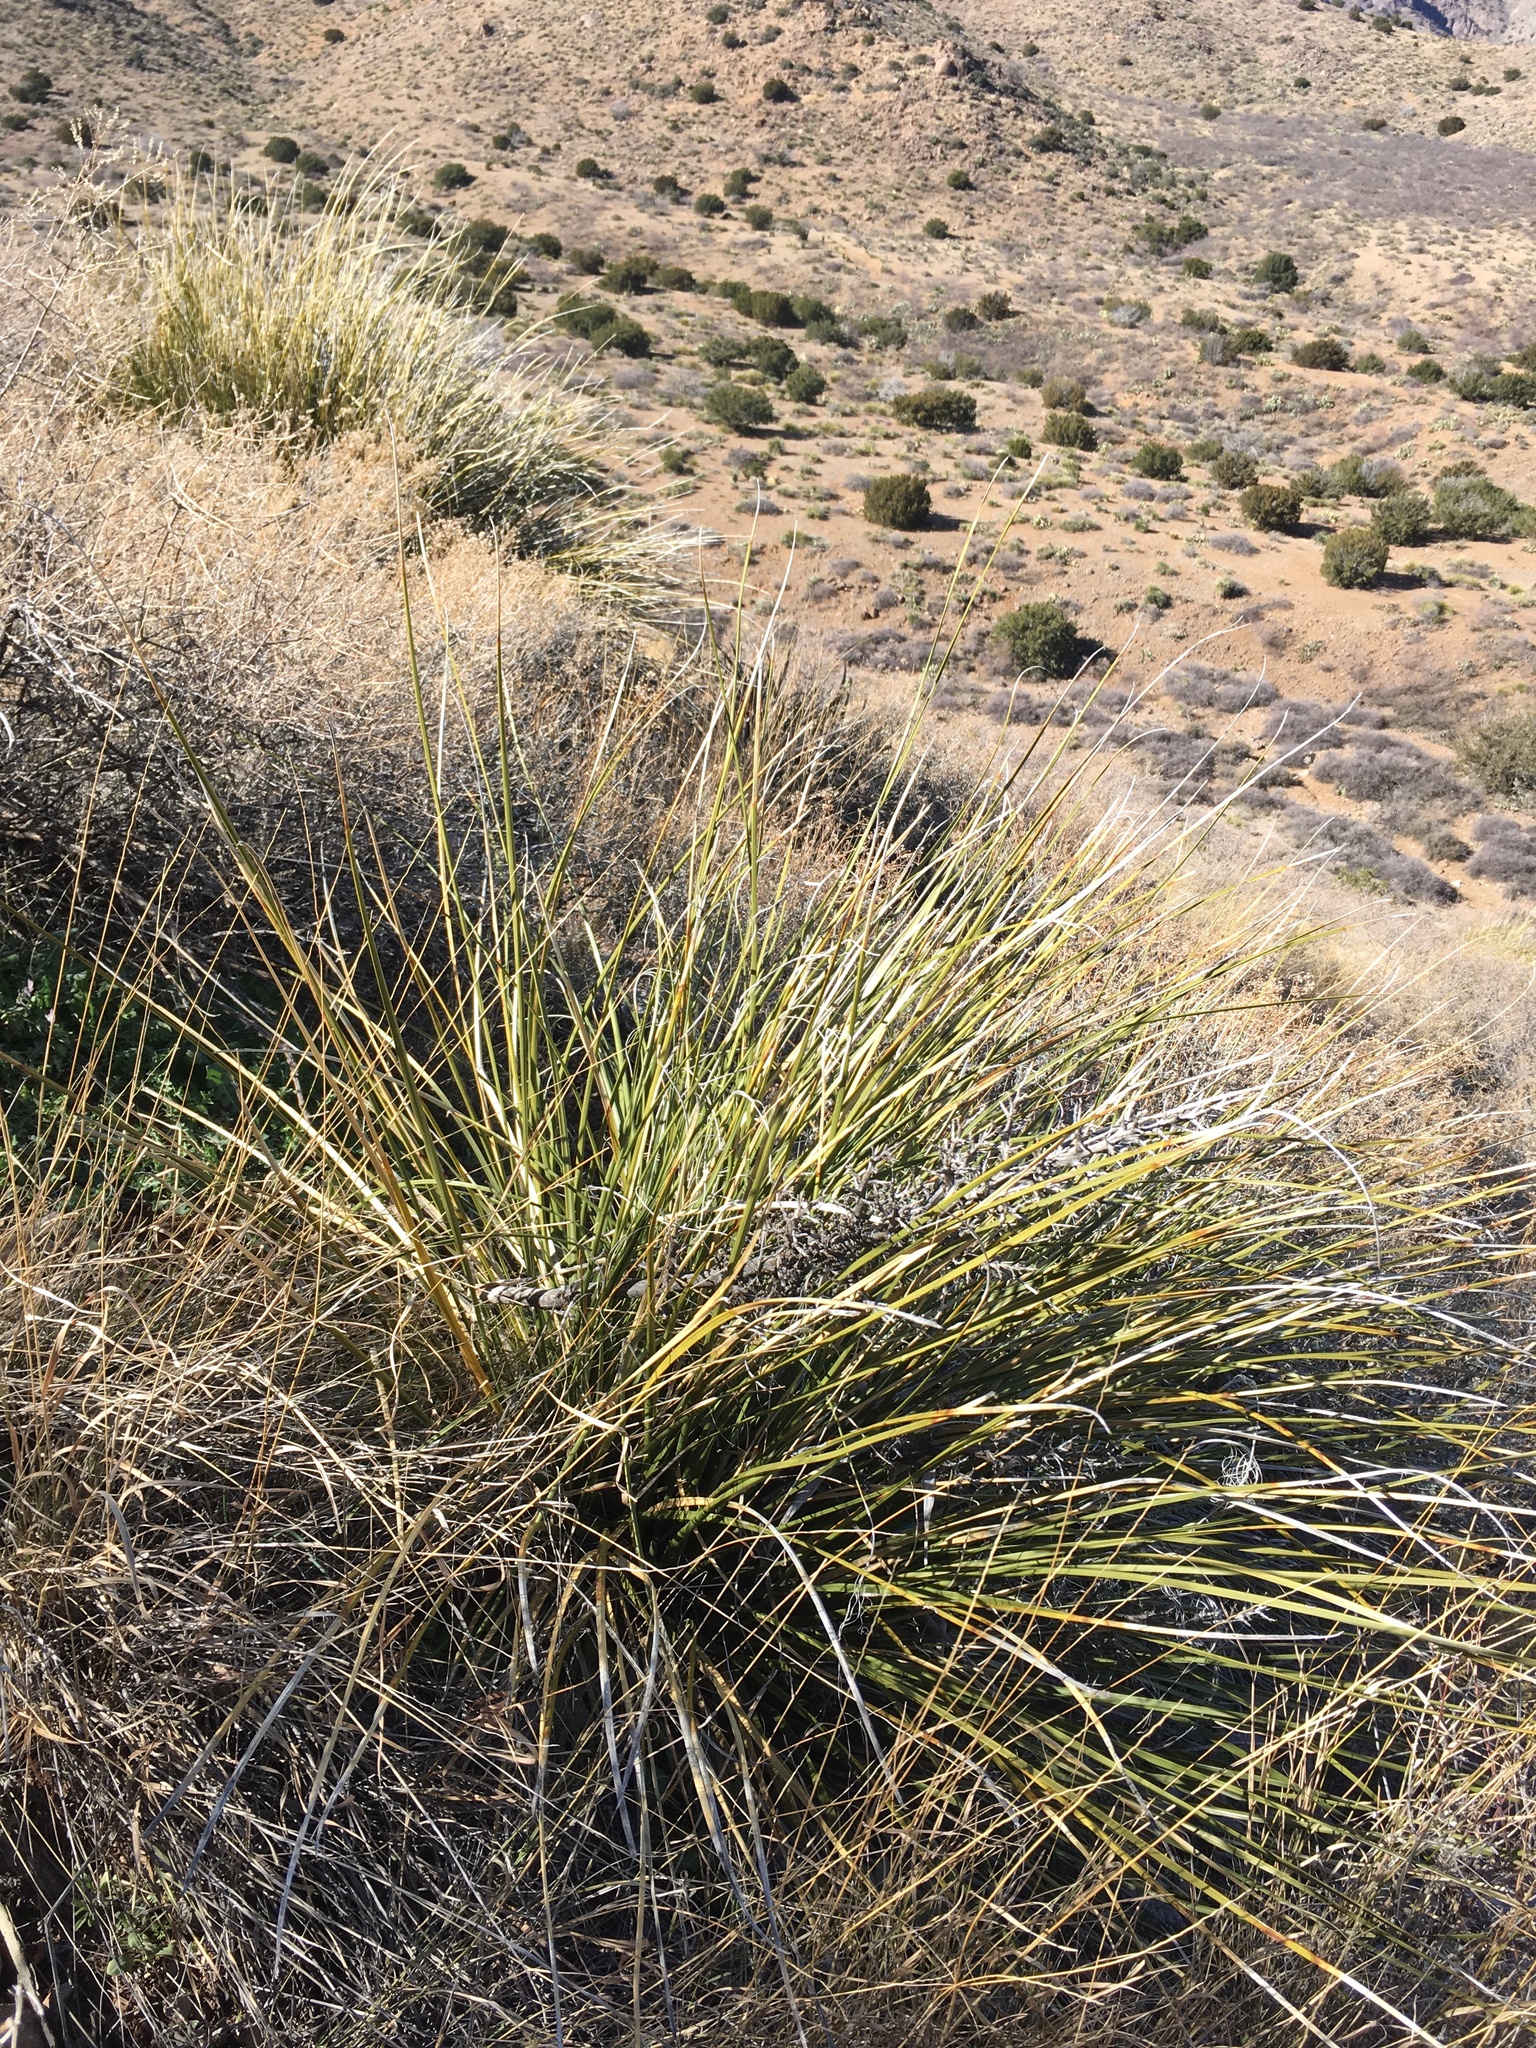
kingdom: Plantae
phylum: Tracheophyta
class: Liliopsida
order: Asparagales
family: Asparagaceae
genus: Nolina
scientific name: Nolina texana
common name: Texas sacahuiste
